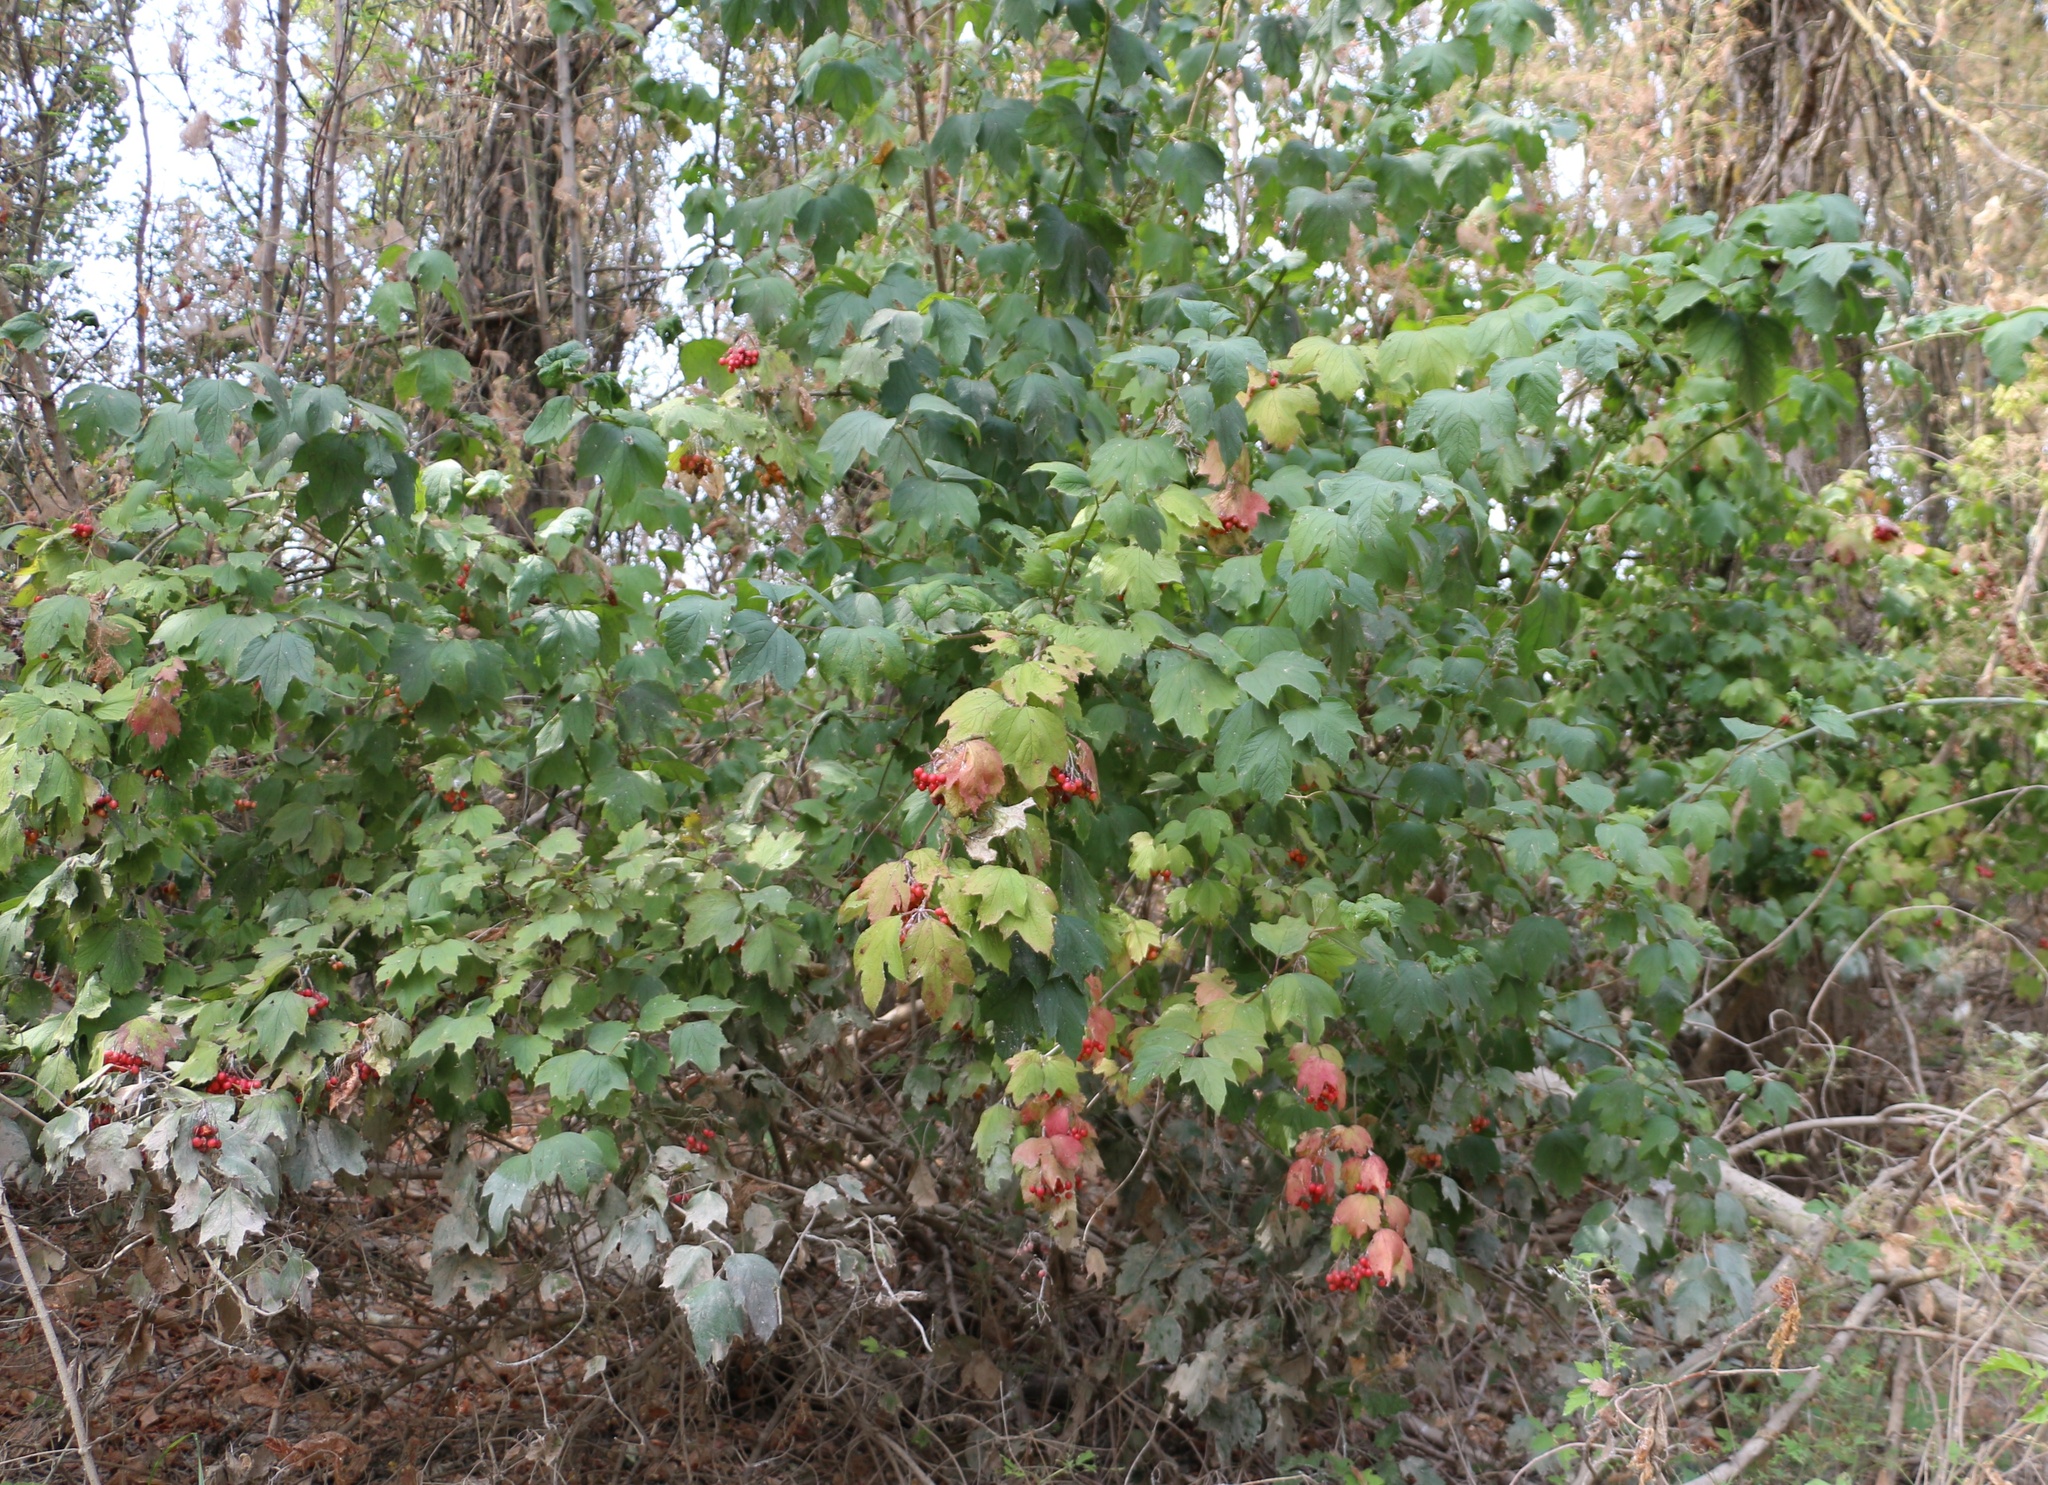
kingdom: Plantae
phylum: Tracheophyta
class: Magnoliopsida
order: Dipsacales
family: Viburnaceae
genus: Viburnum
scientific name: Viburnum opulus
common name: Guelder-rose
